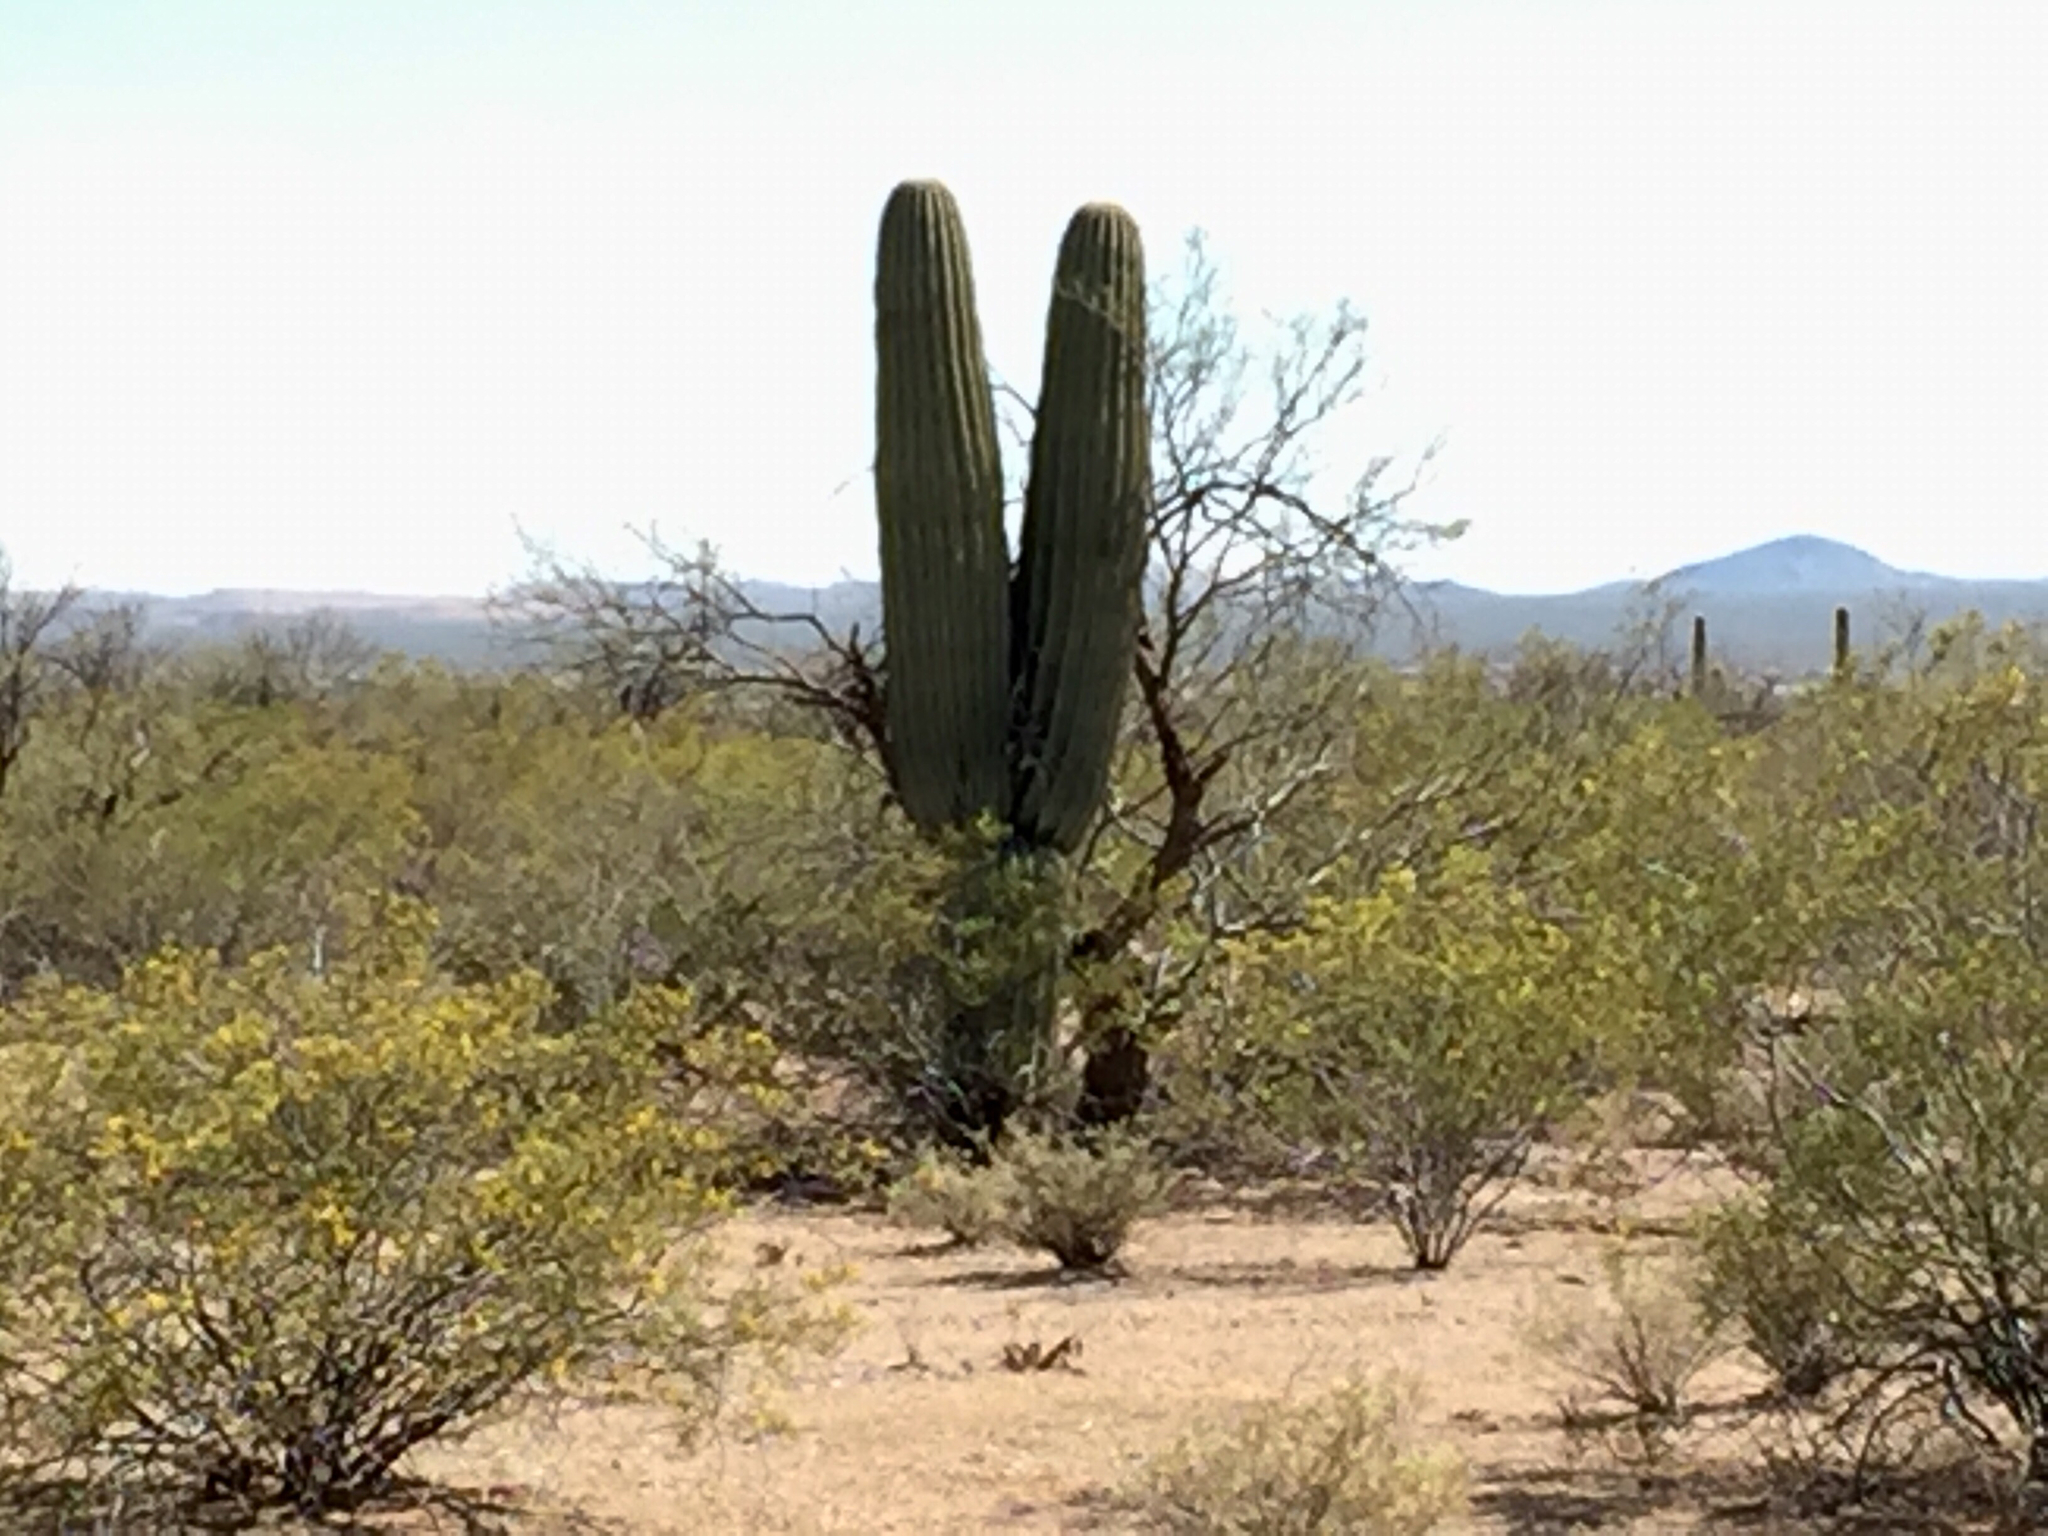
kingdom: Plantae
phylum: Tracheophyta
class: Magnoliopsida
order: Caryophyllales
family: Cactaceae
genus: Carnegiea
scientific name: Carnegiea gigantea
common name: Saguaro
